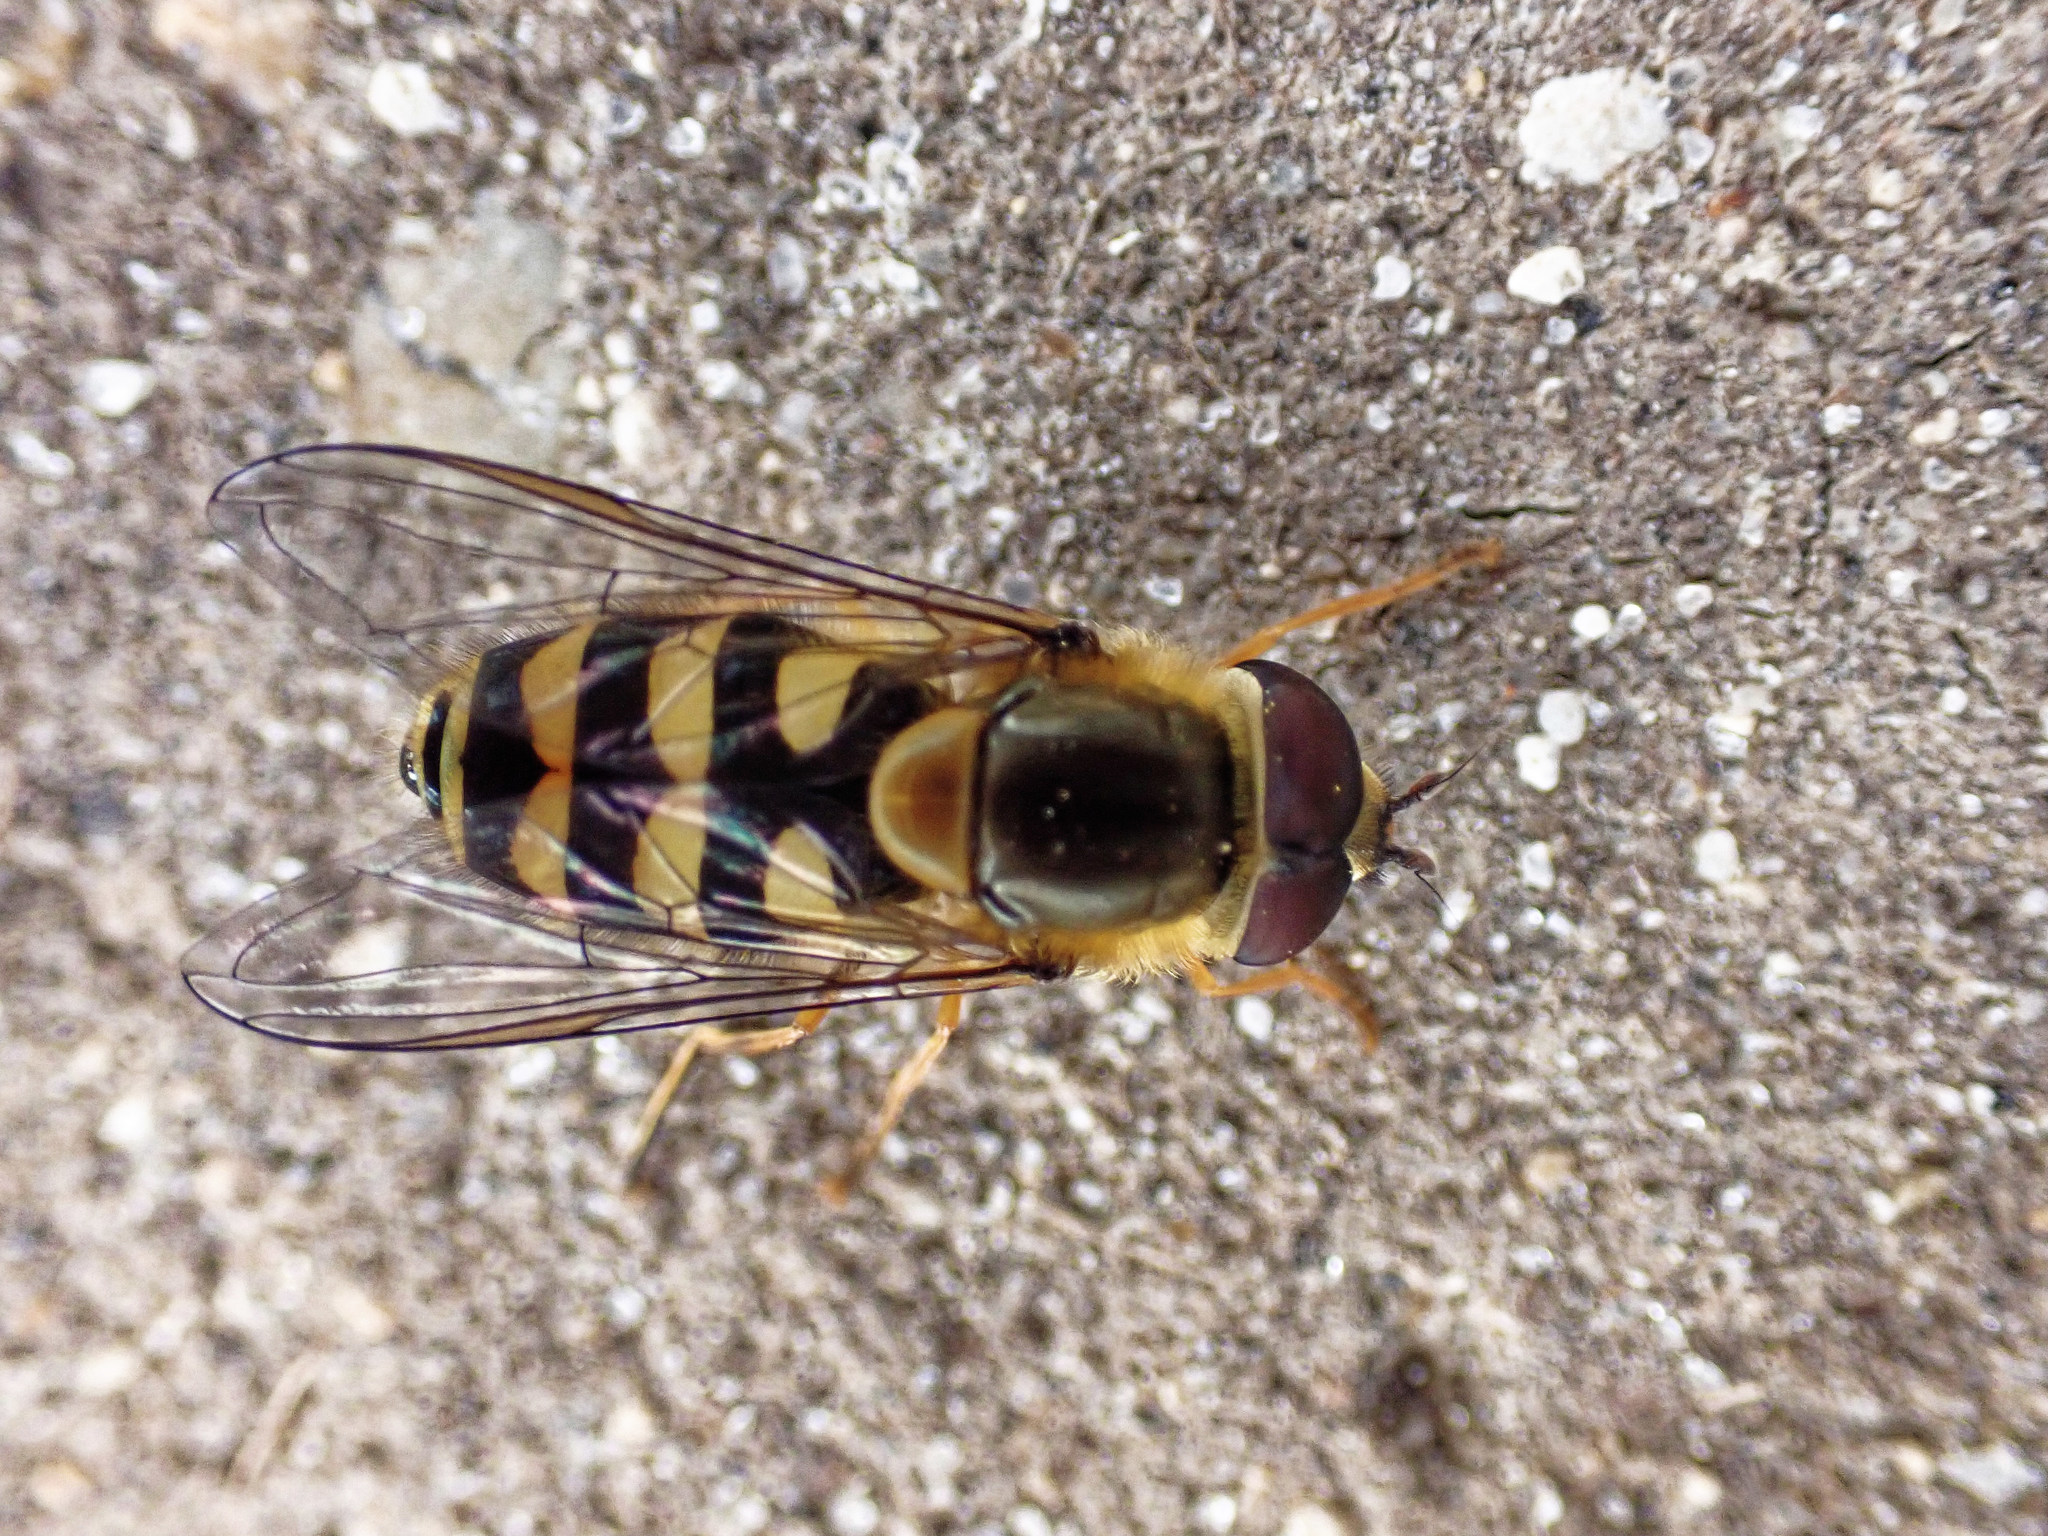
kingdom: Animalia
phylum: Arthropoda
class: Insecta
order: Diptera
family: Syrphidae
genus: Syrphus
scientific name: Syrphus
